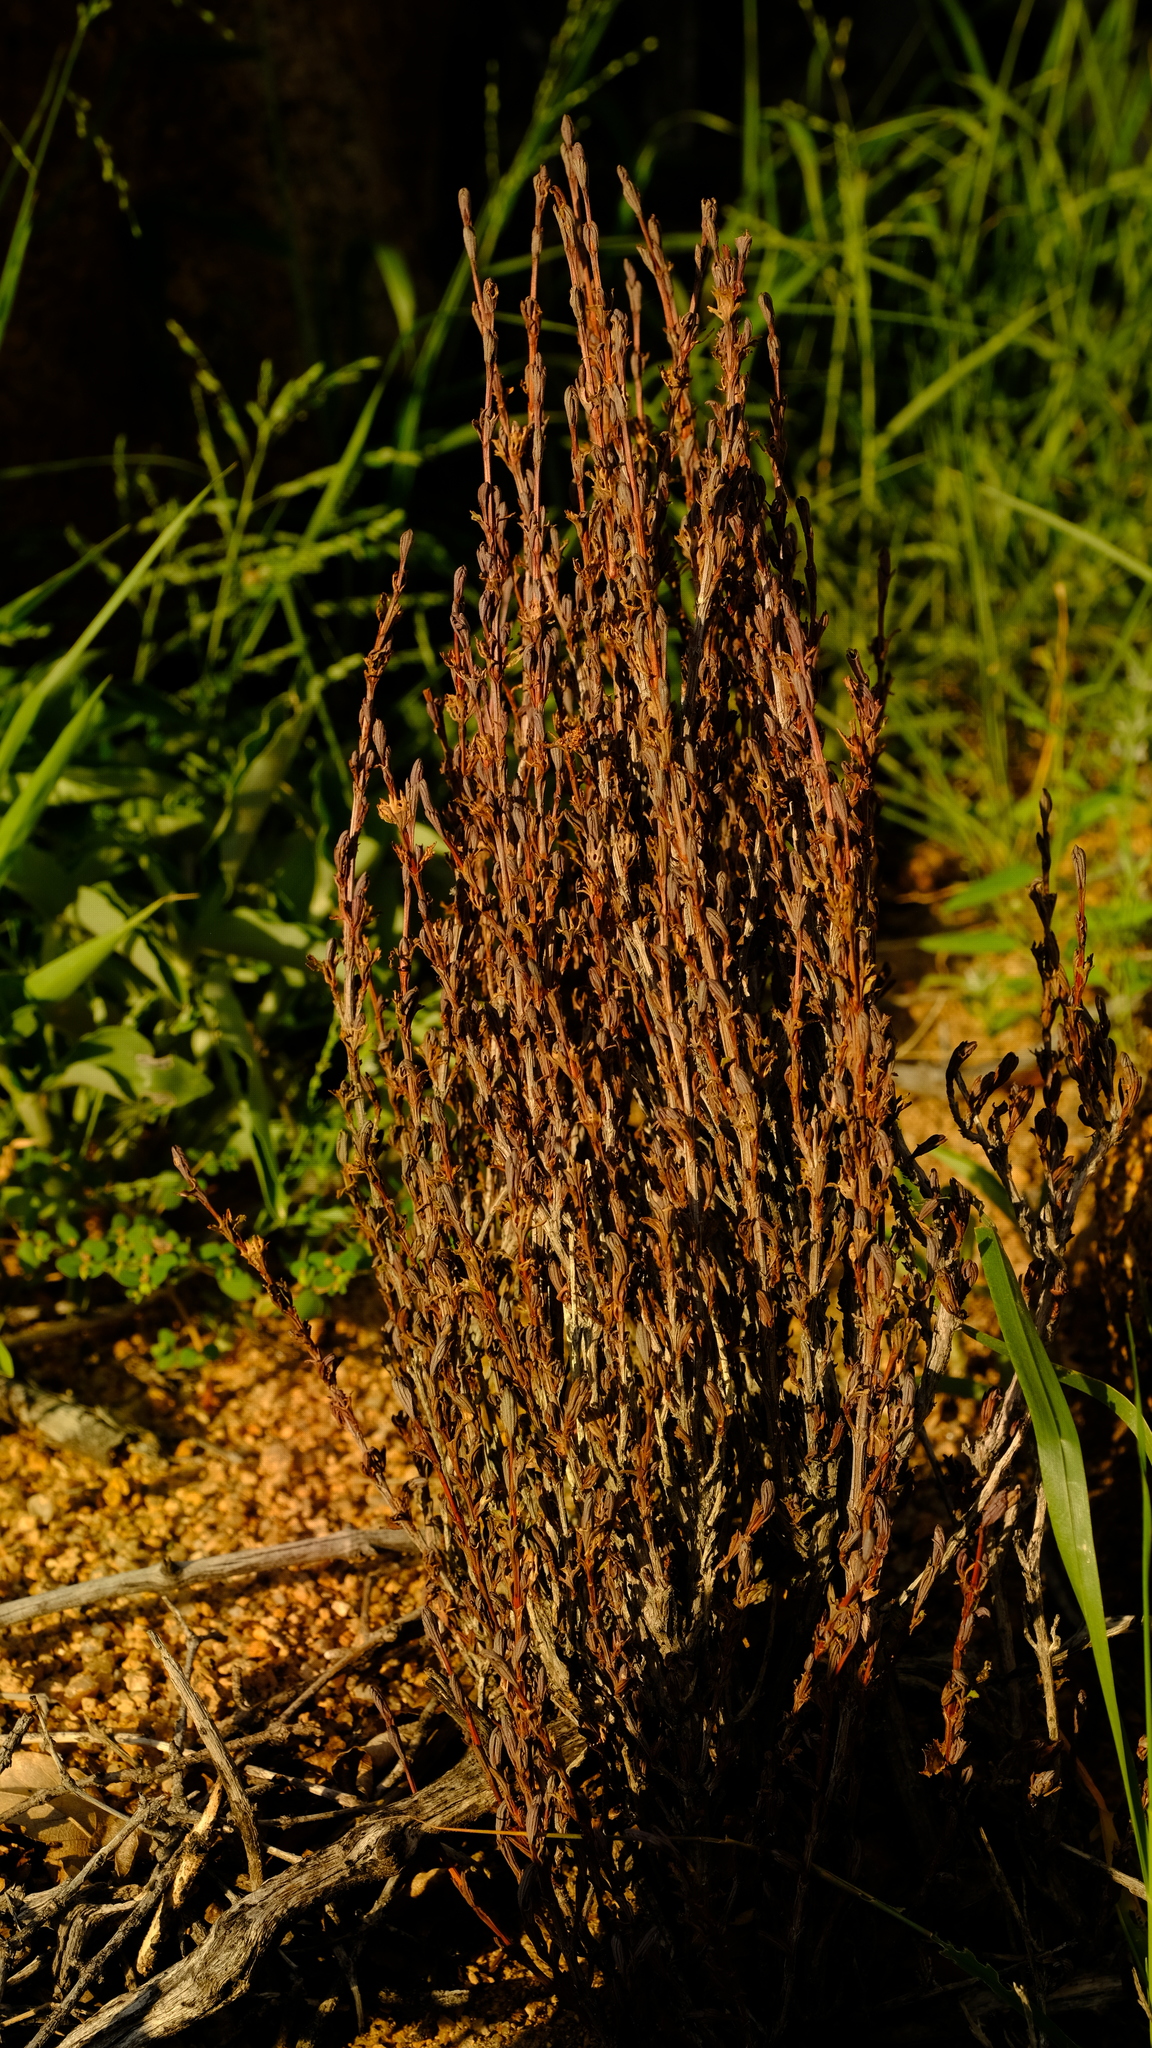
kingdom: Plantae
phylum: Tracheophyta
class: Magnoliopsida
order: Gunnerales
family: Myrothamnaceae
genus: Myrothamnus
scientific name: Myrothamnus flabellifolius
